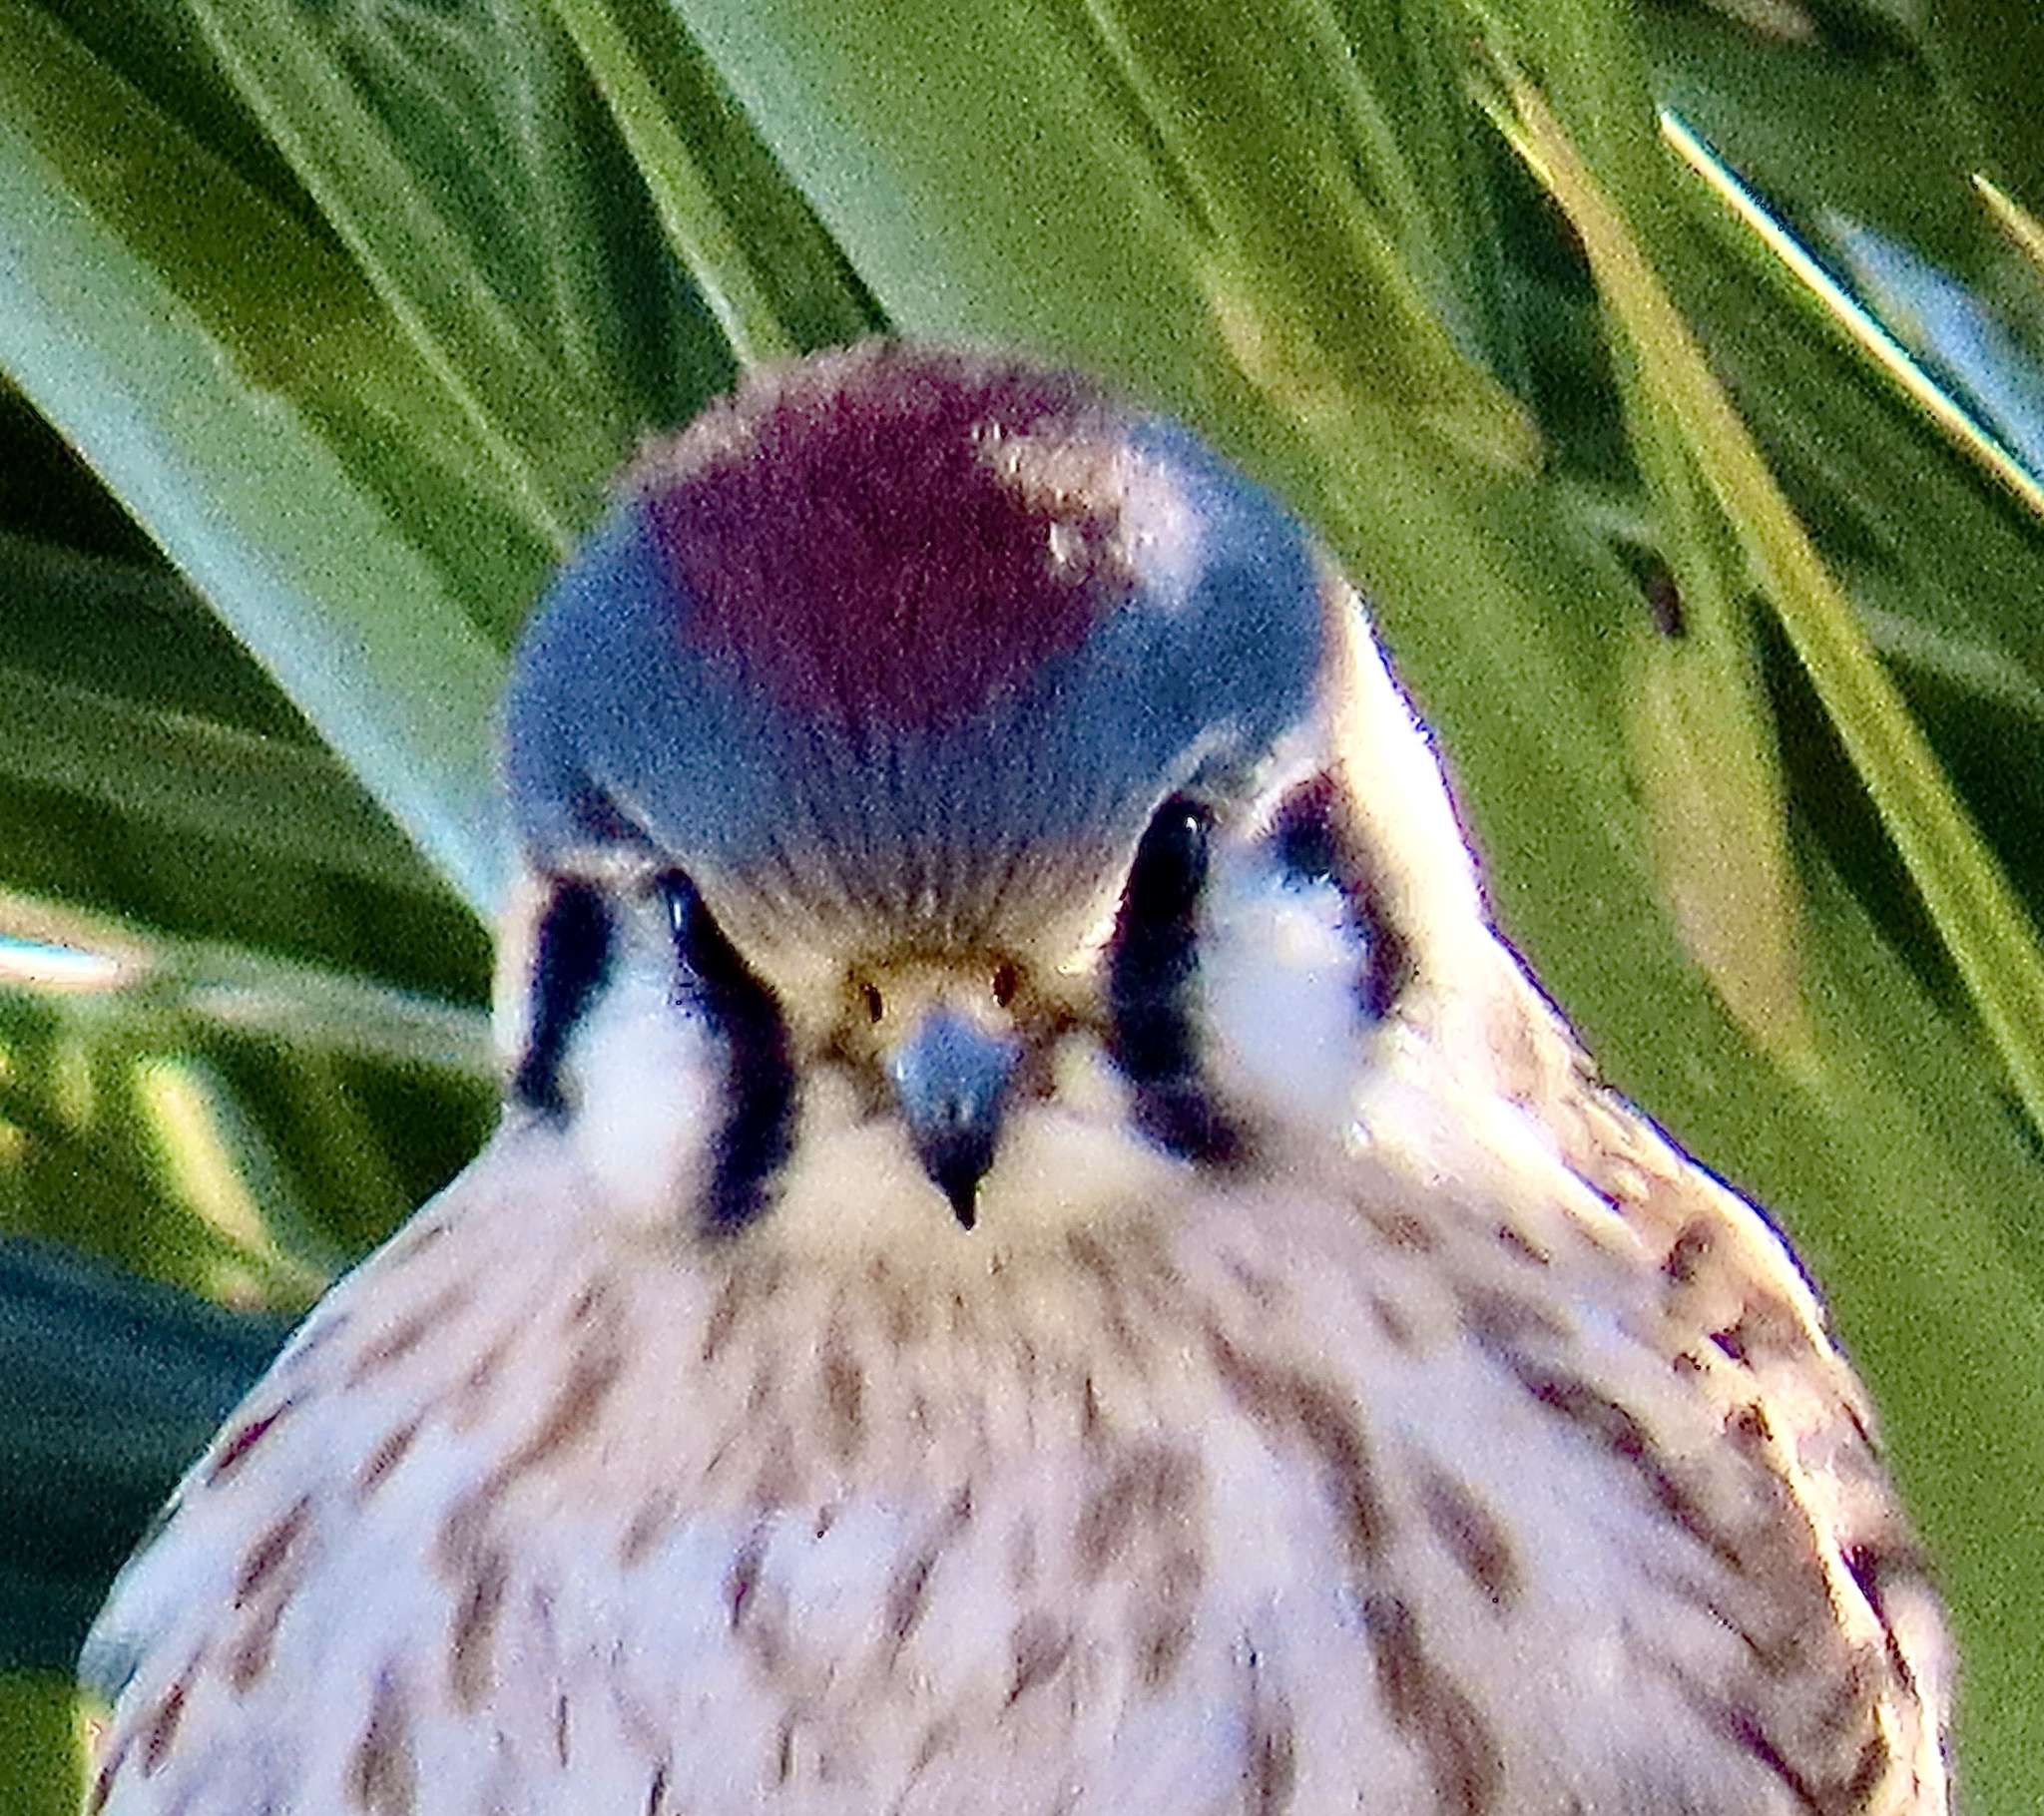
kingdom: Animalia
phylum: Chordata
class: Aves
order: Falconiformes
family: Falconidae
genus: Falco
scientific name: Falco sparverius
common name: American kestrel
